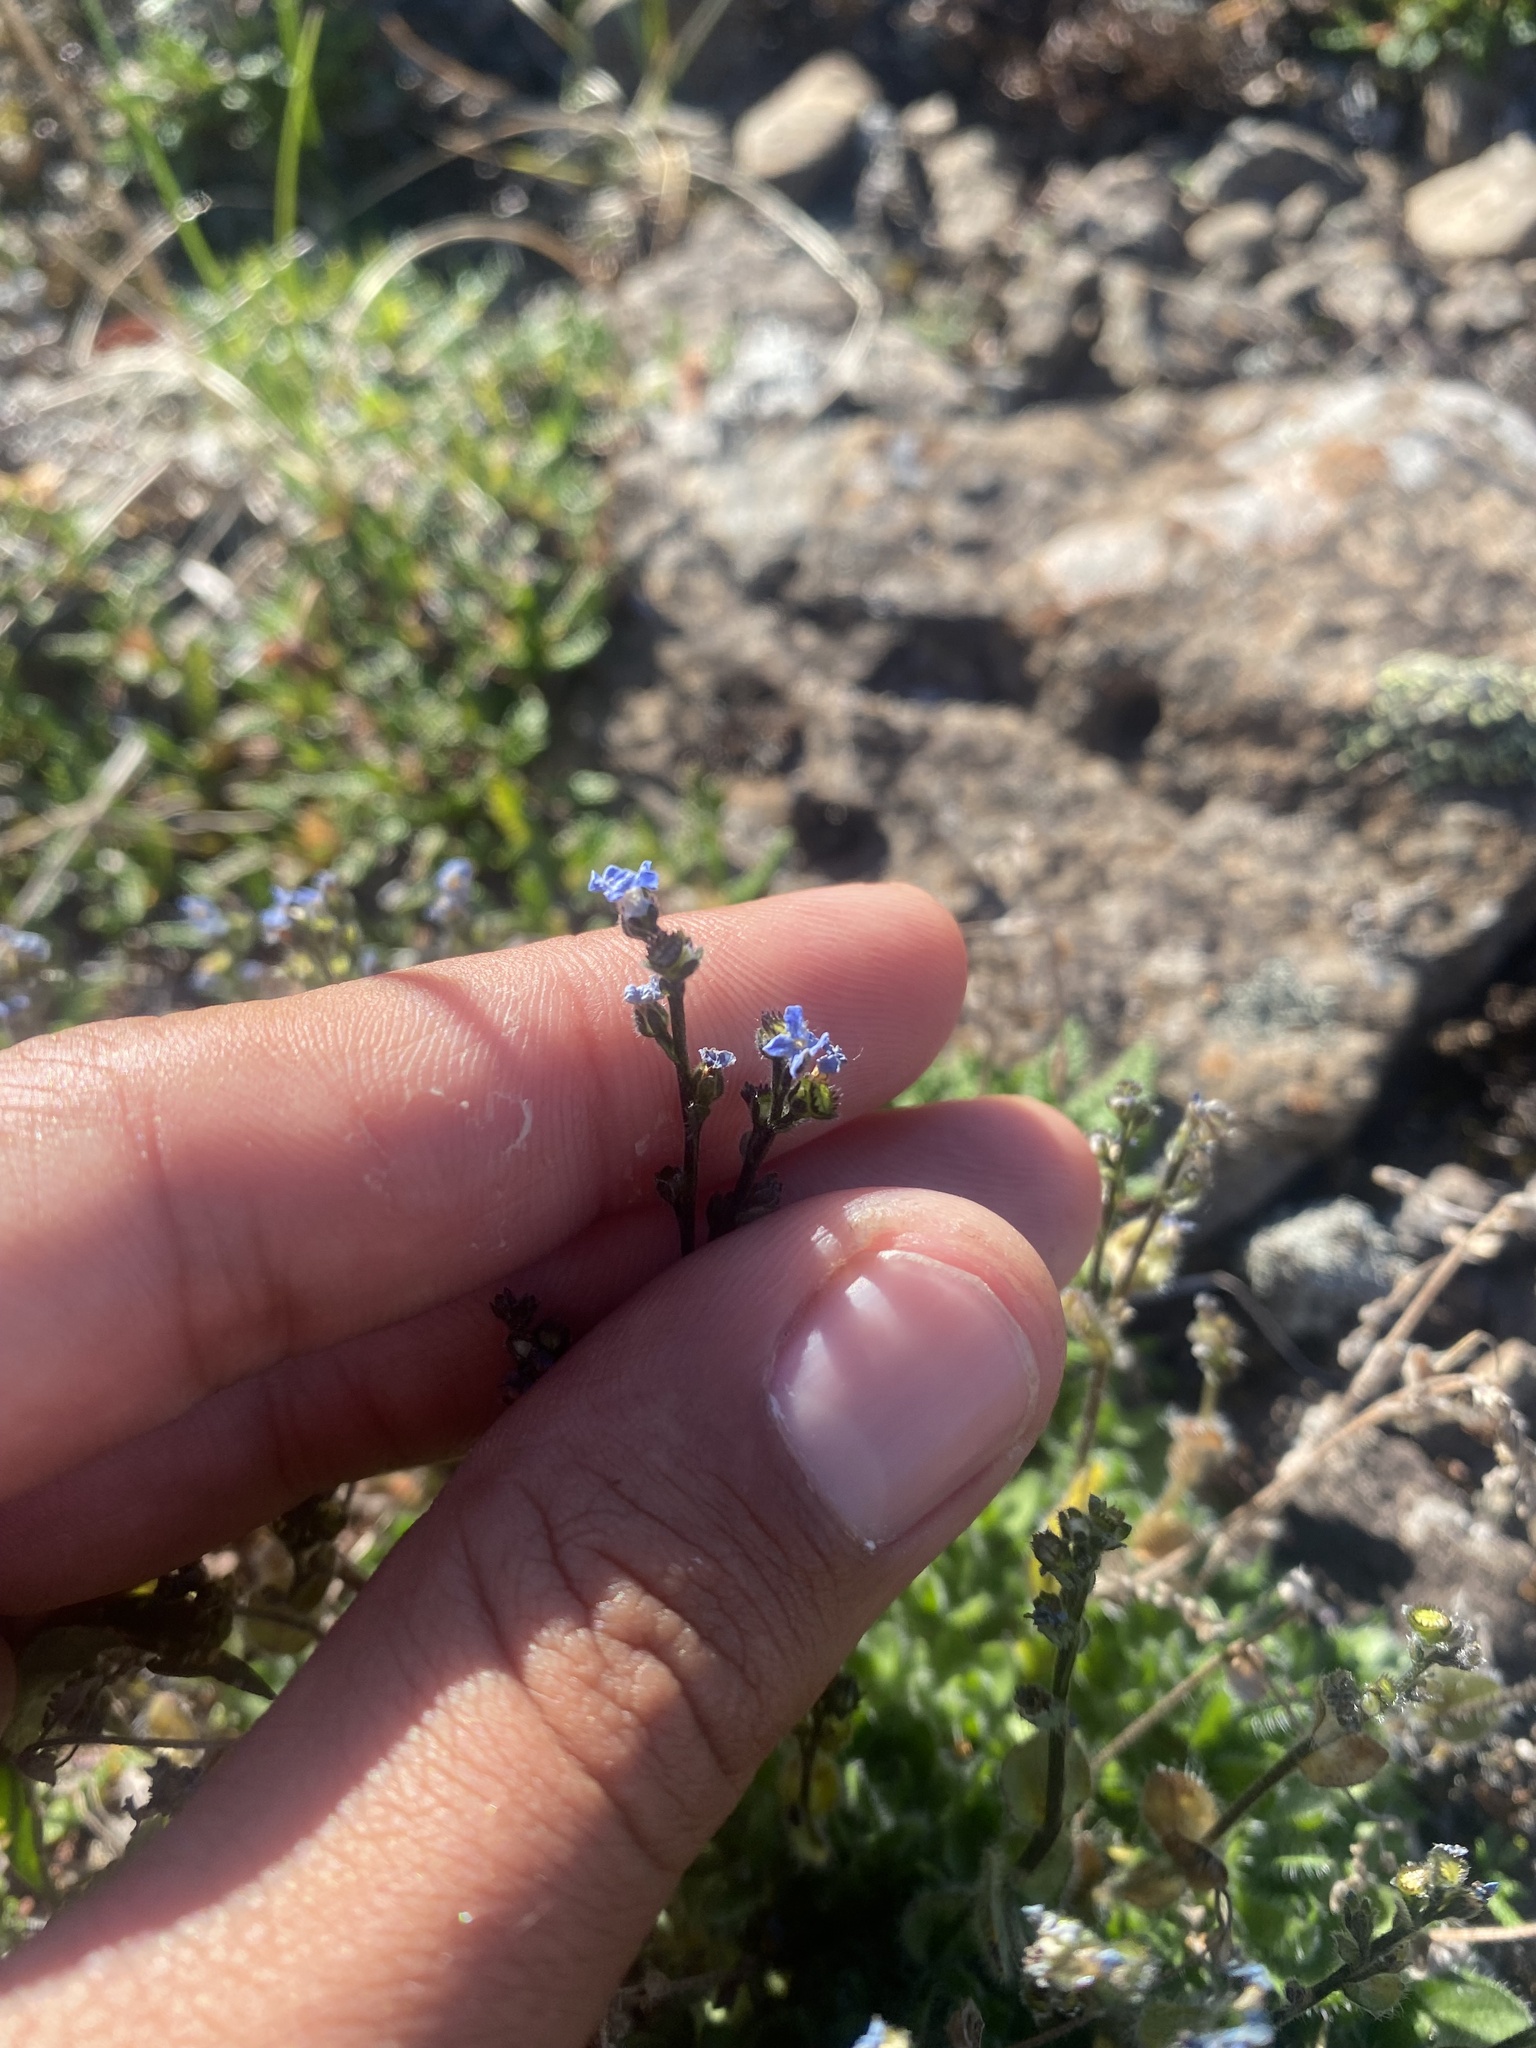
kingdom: Plantae
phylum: Tracheophyta
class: Magnoliopsida
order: Boraginales
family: Boraginaceae
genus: Eritrichium
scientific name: Eritrichium villosum
